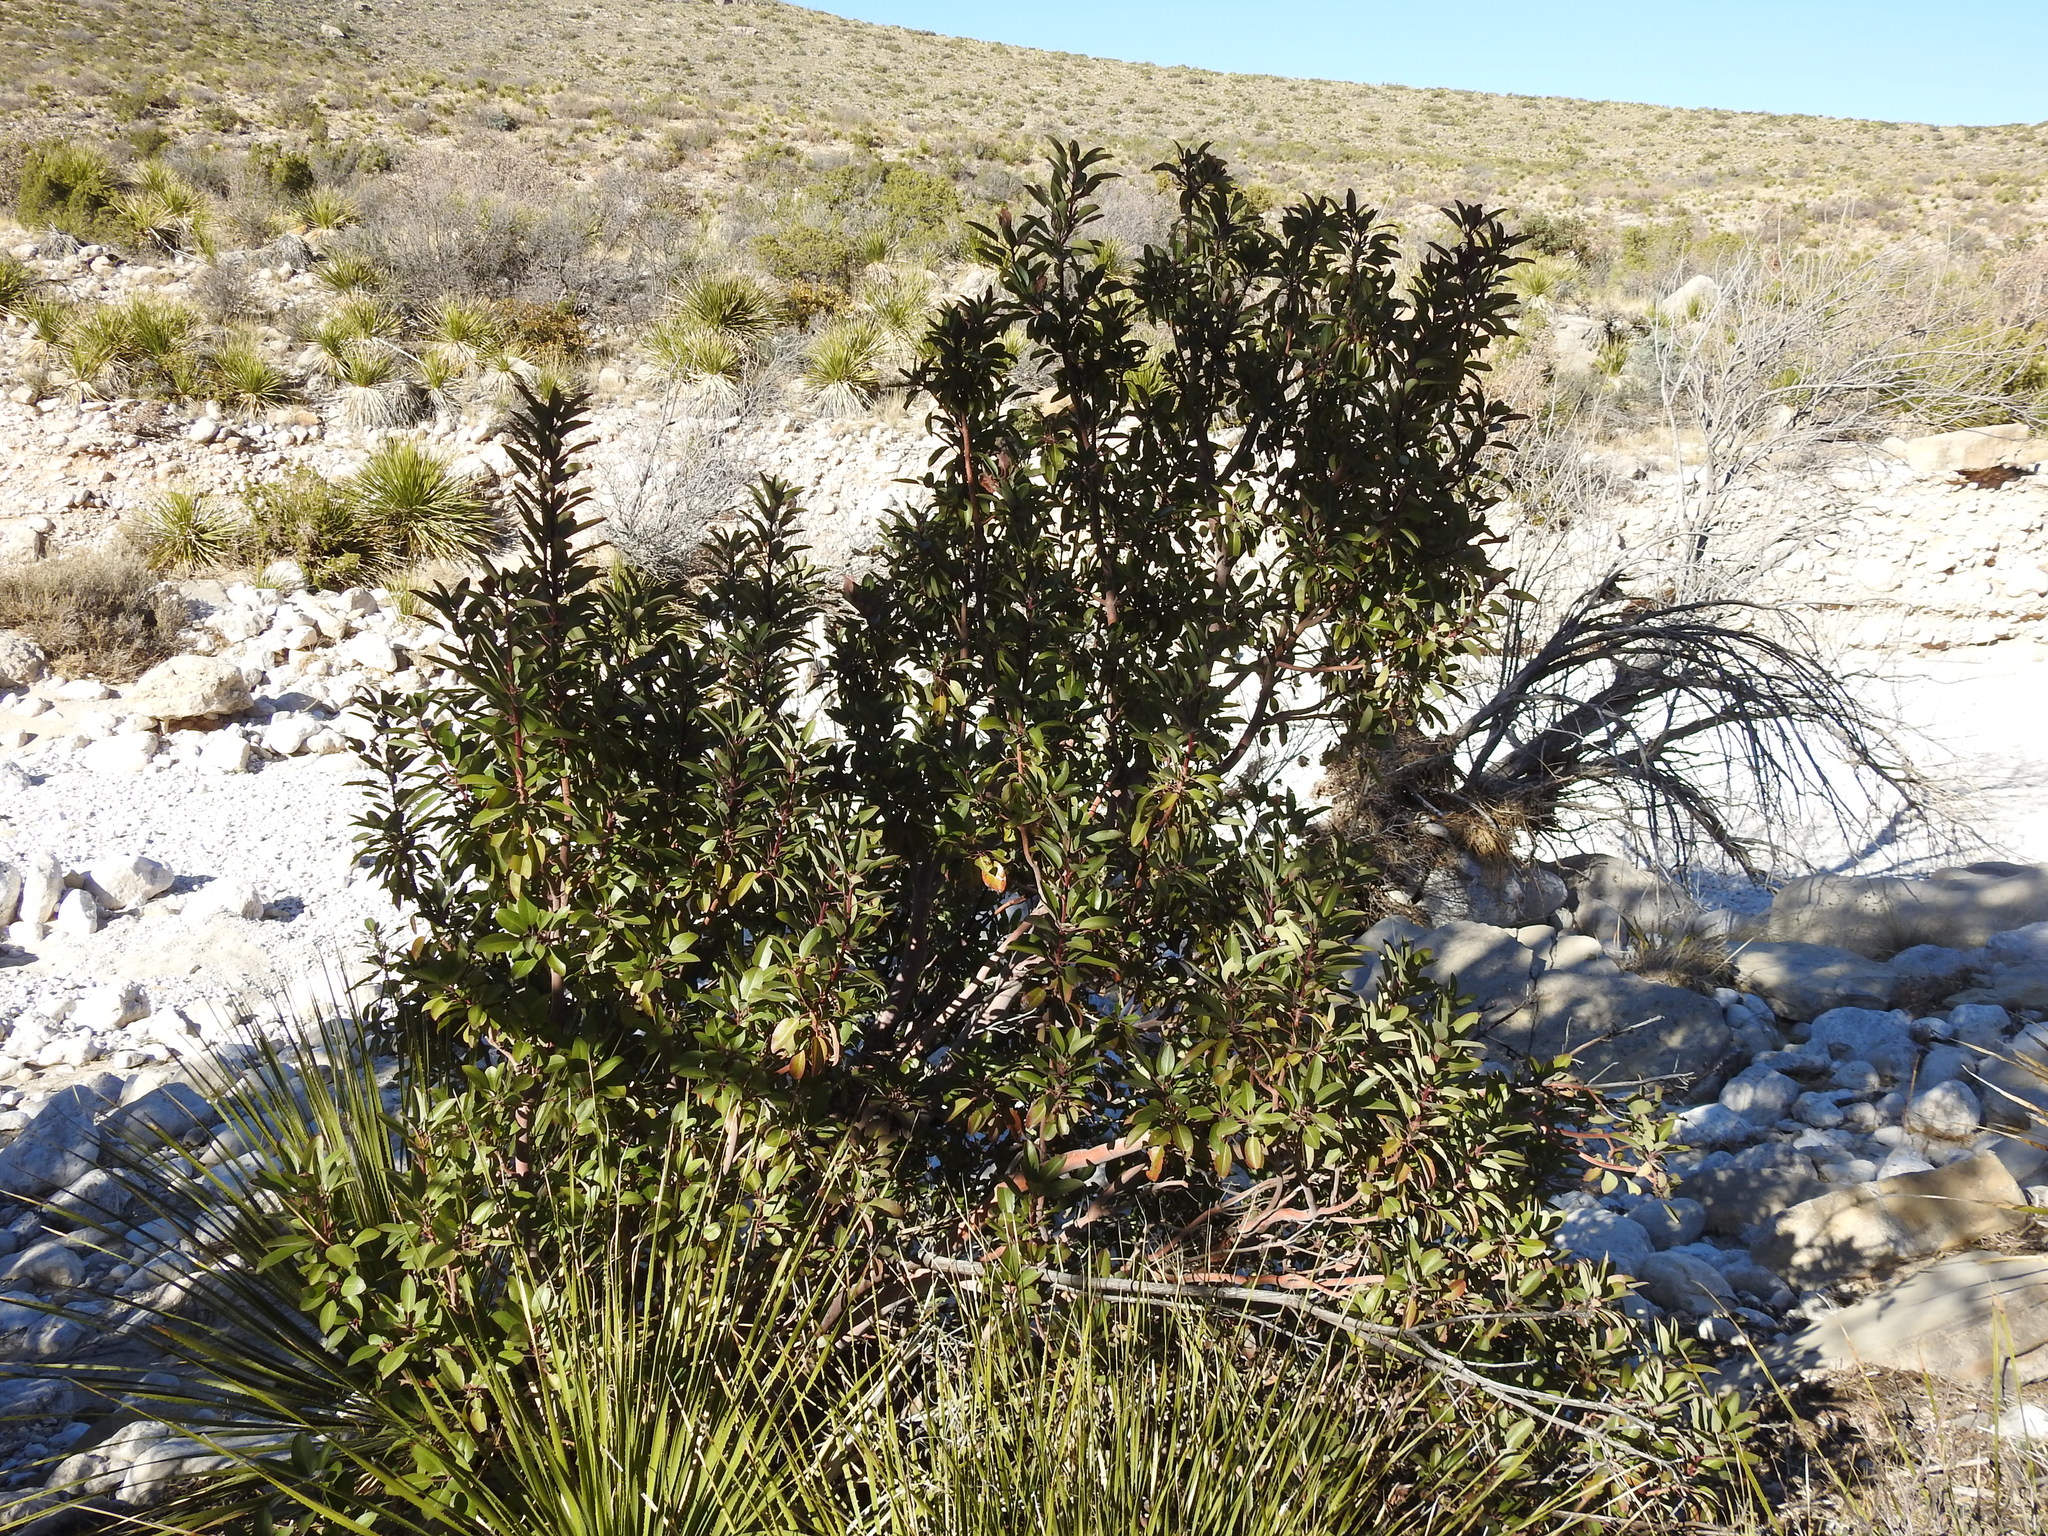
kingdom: Plantae
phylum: Tracheophyta
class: Magnoliopsida
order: Sapindales
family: Anacardiaceae
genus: Rhus
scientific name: Rhus virens
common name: Evergreen sumac
